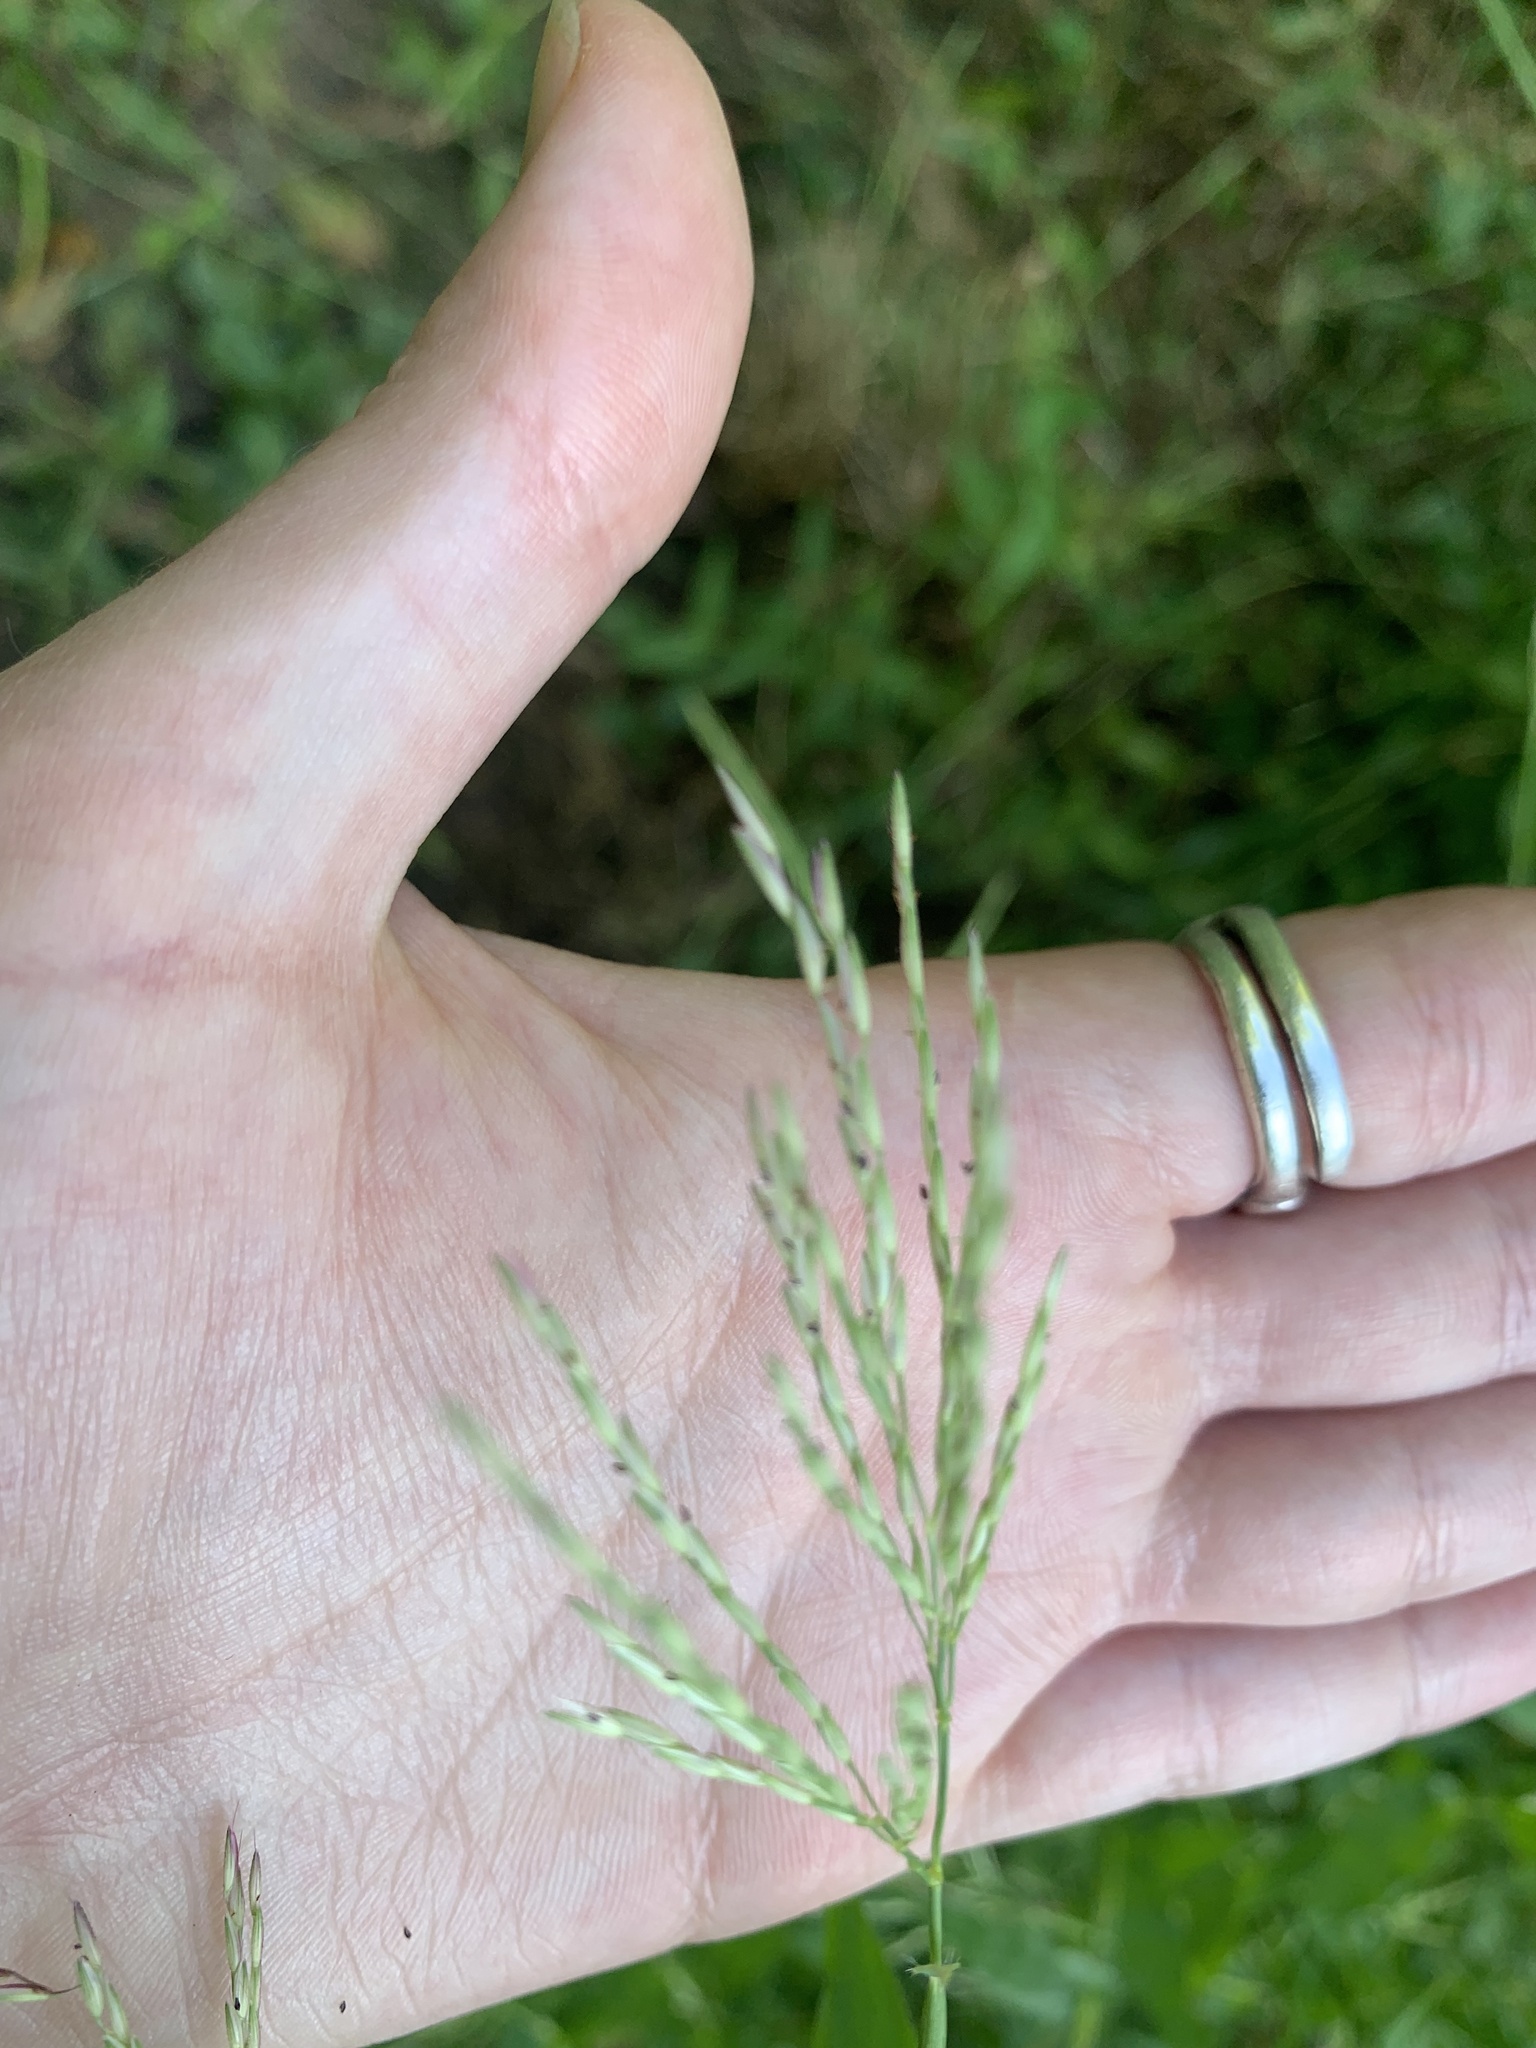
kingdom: Plantae
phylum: Tracheophyta
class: Liliopsida
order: Poales
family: Poaceae
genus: Arthraxon
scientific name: Arthraxon hispidus
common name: Small carpgrass
